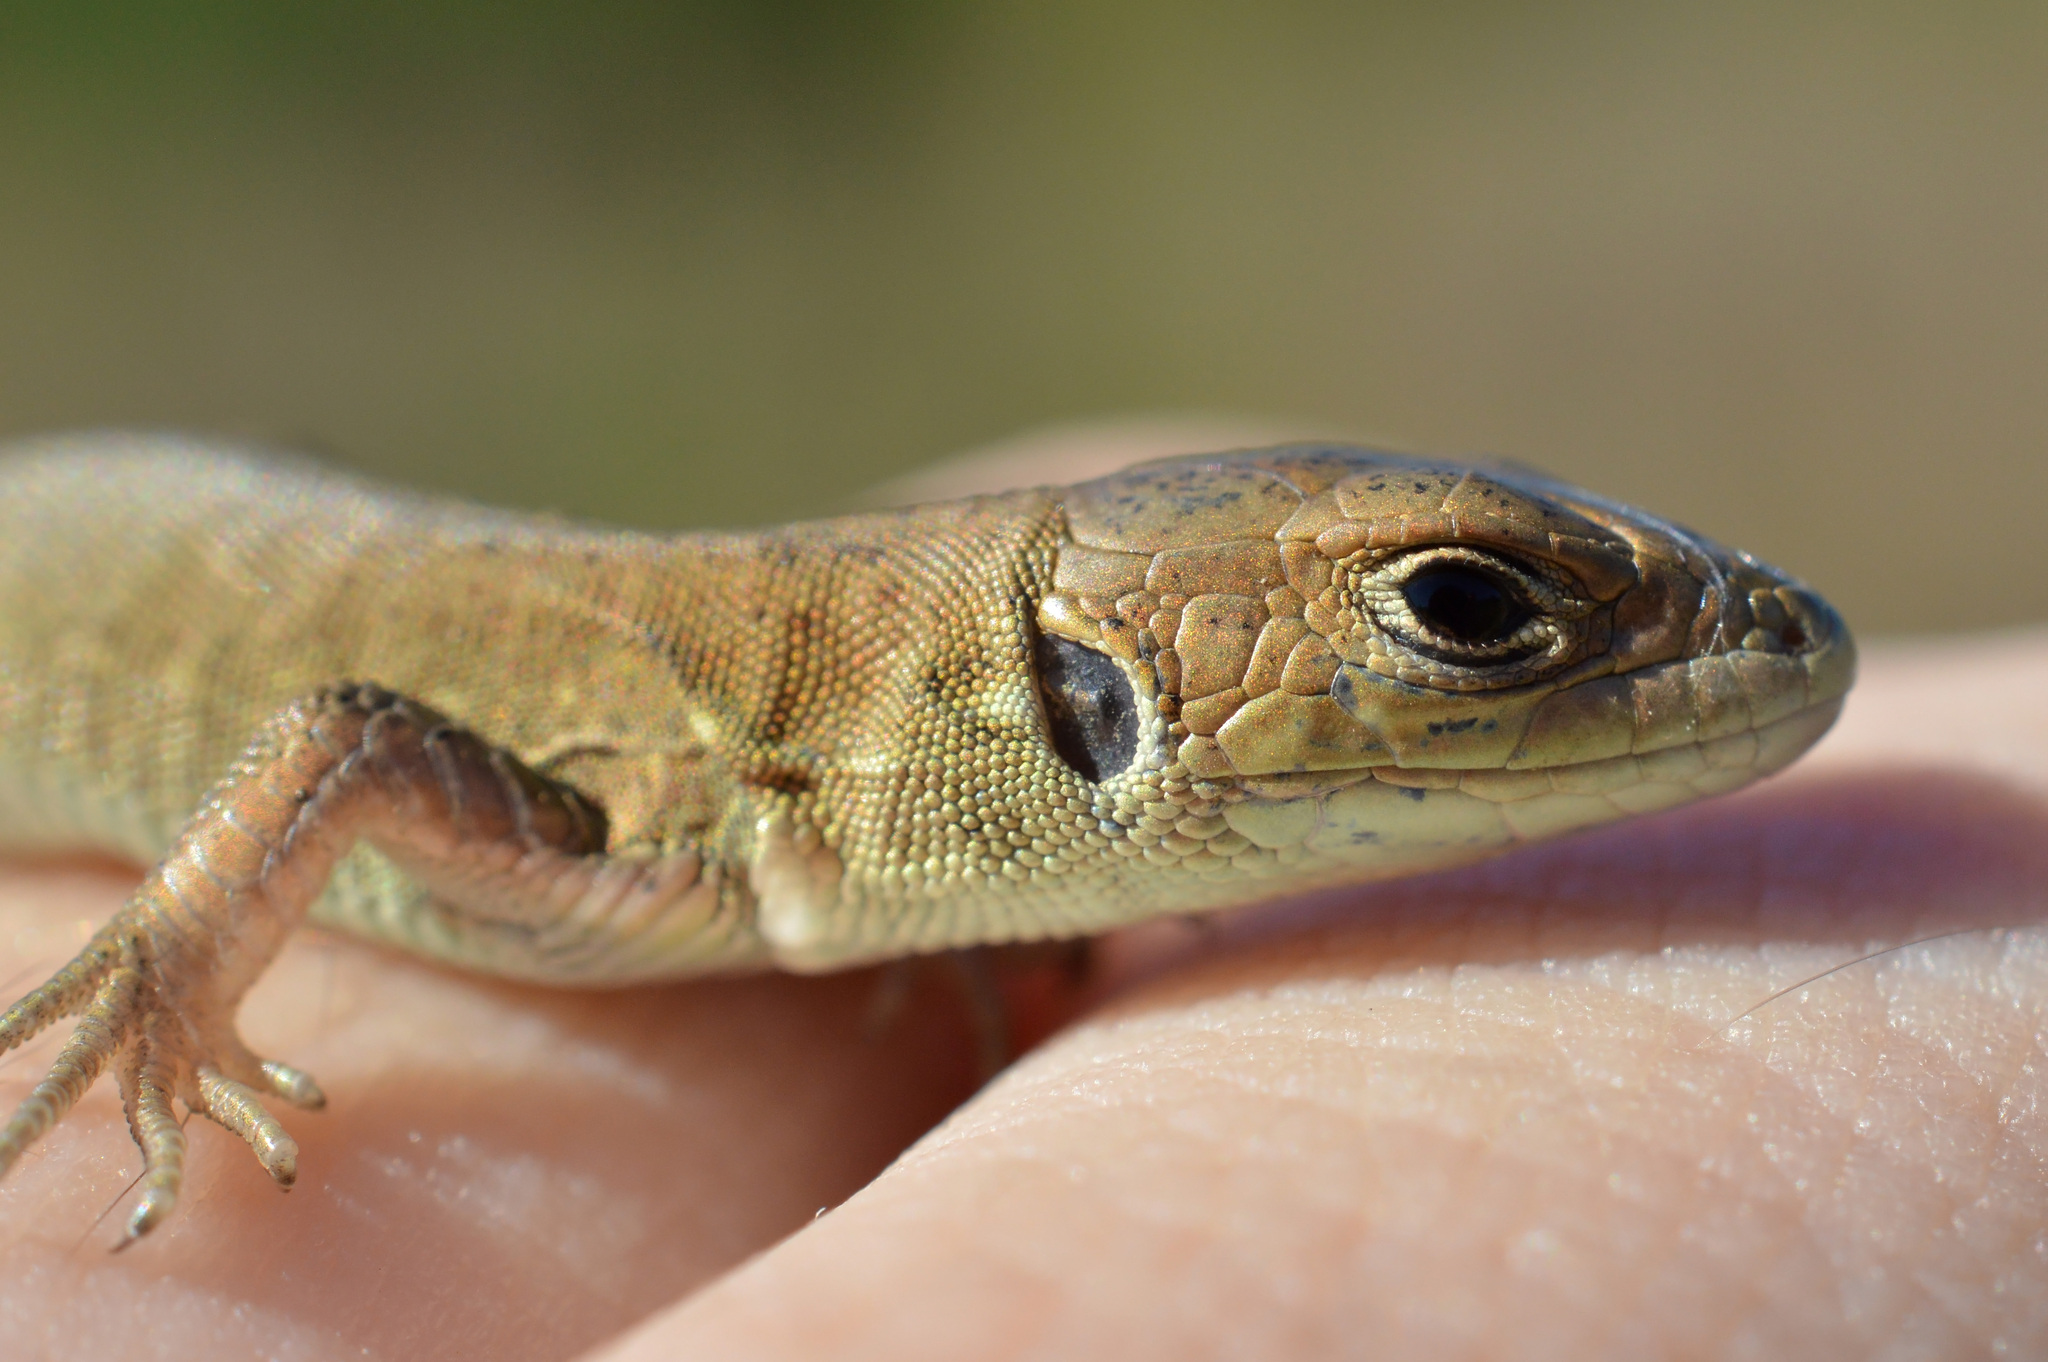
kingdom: Animalia
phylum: Chordata
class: Squamata
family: Lacertidae
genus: Lacerta
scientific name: Lacerta viridis
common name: European green lizard
